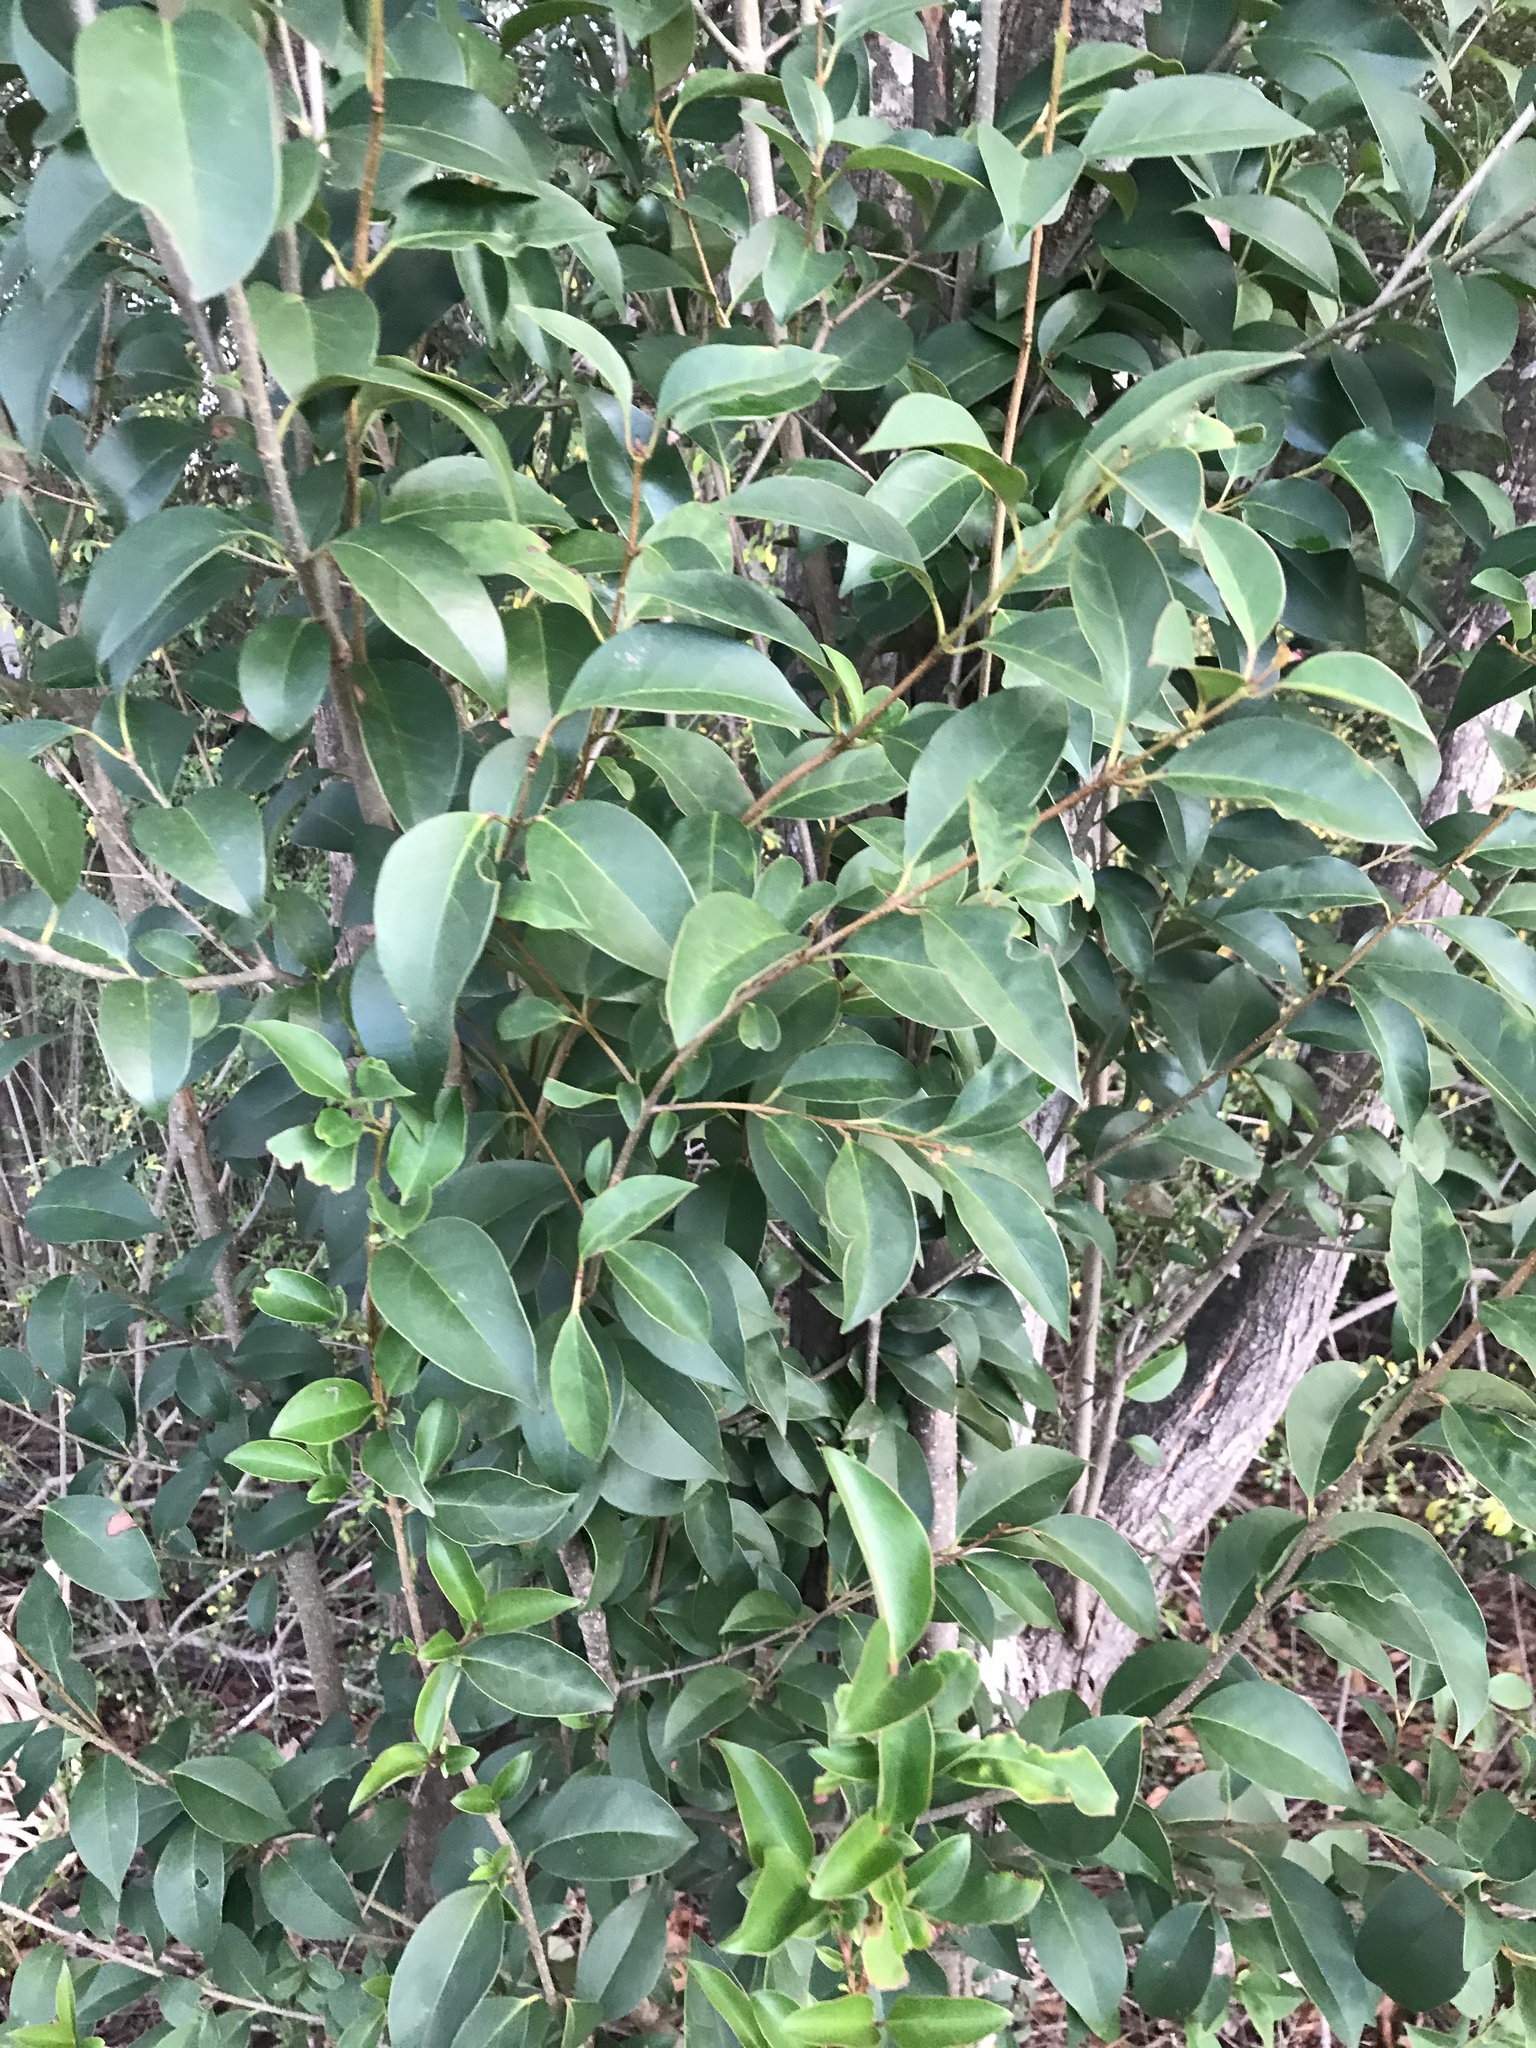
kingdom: Plantae
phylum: Tracheophyta
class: Magnoliopsida
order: Lamiales
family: Oleaceae
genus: Ligustrum
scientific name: Ligustrum lucidum
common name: Glossy privet
